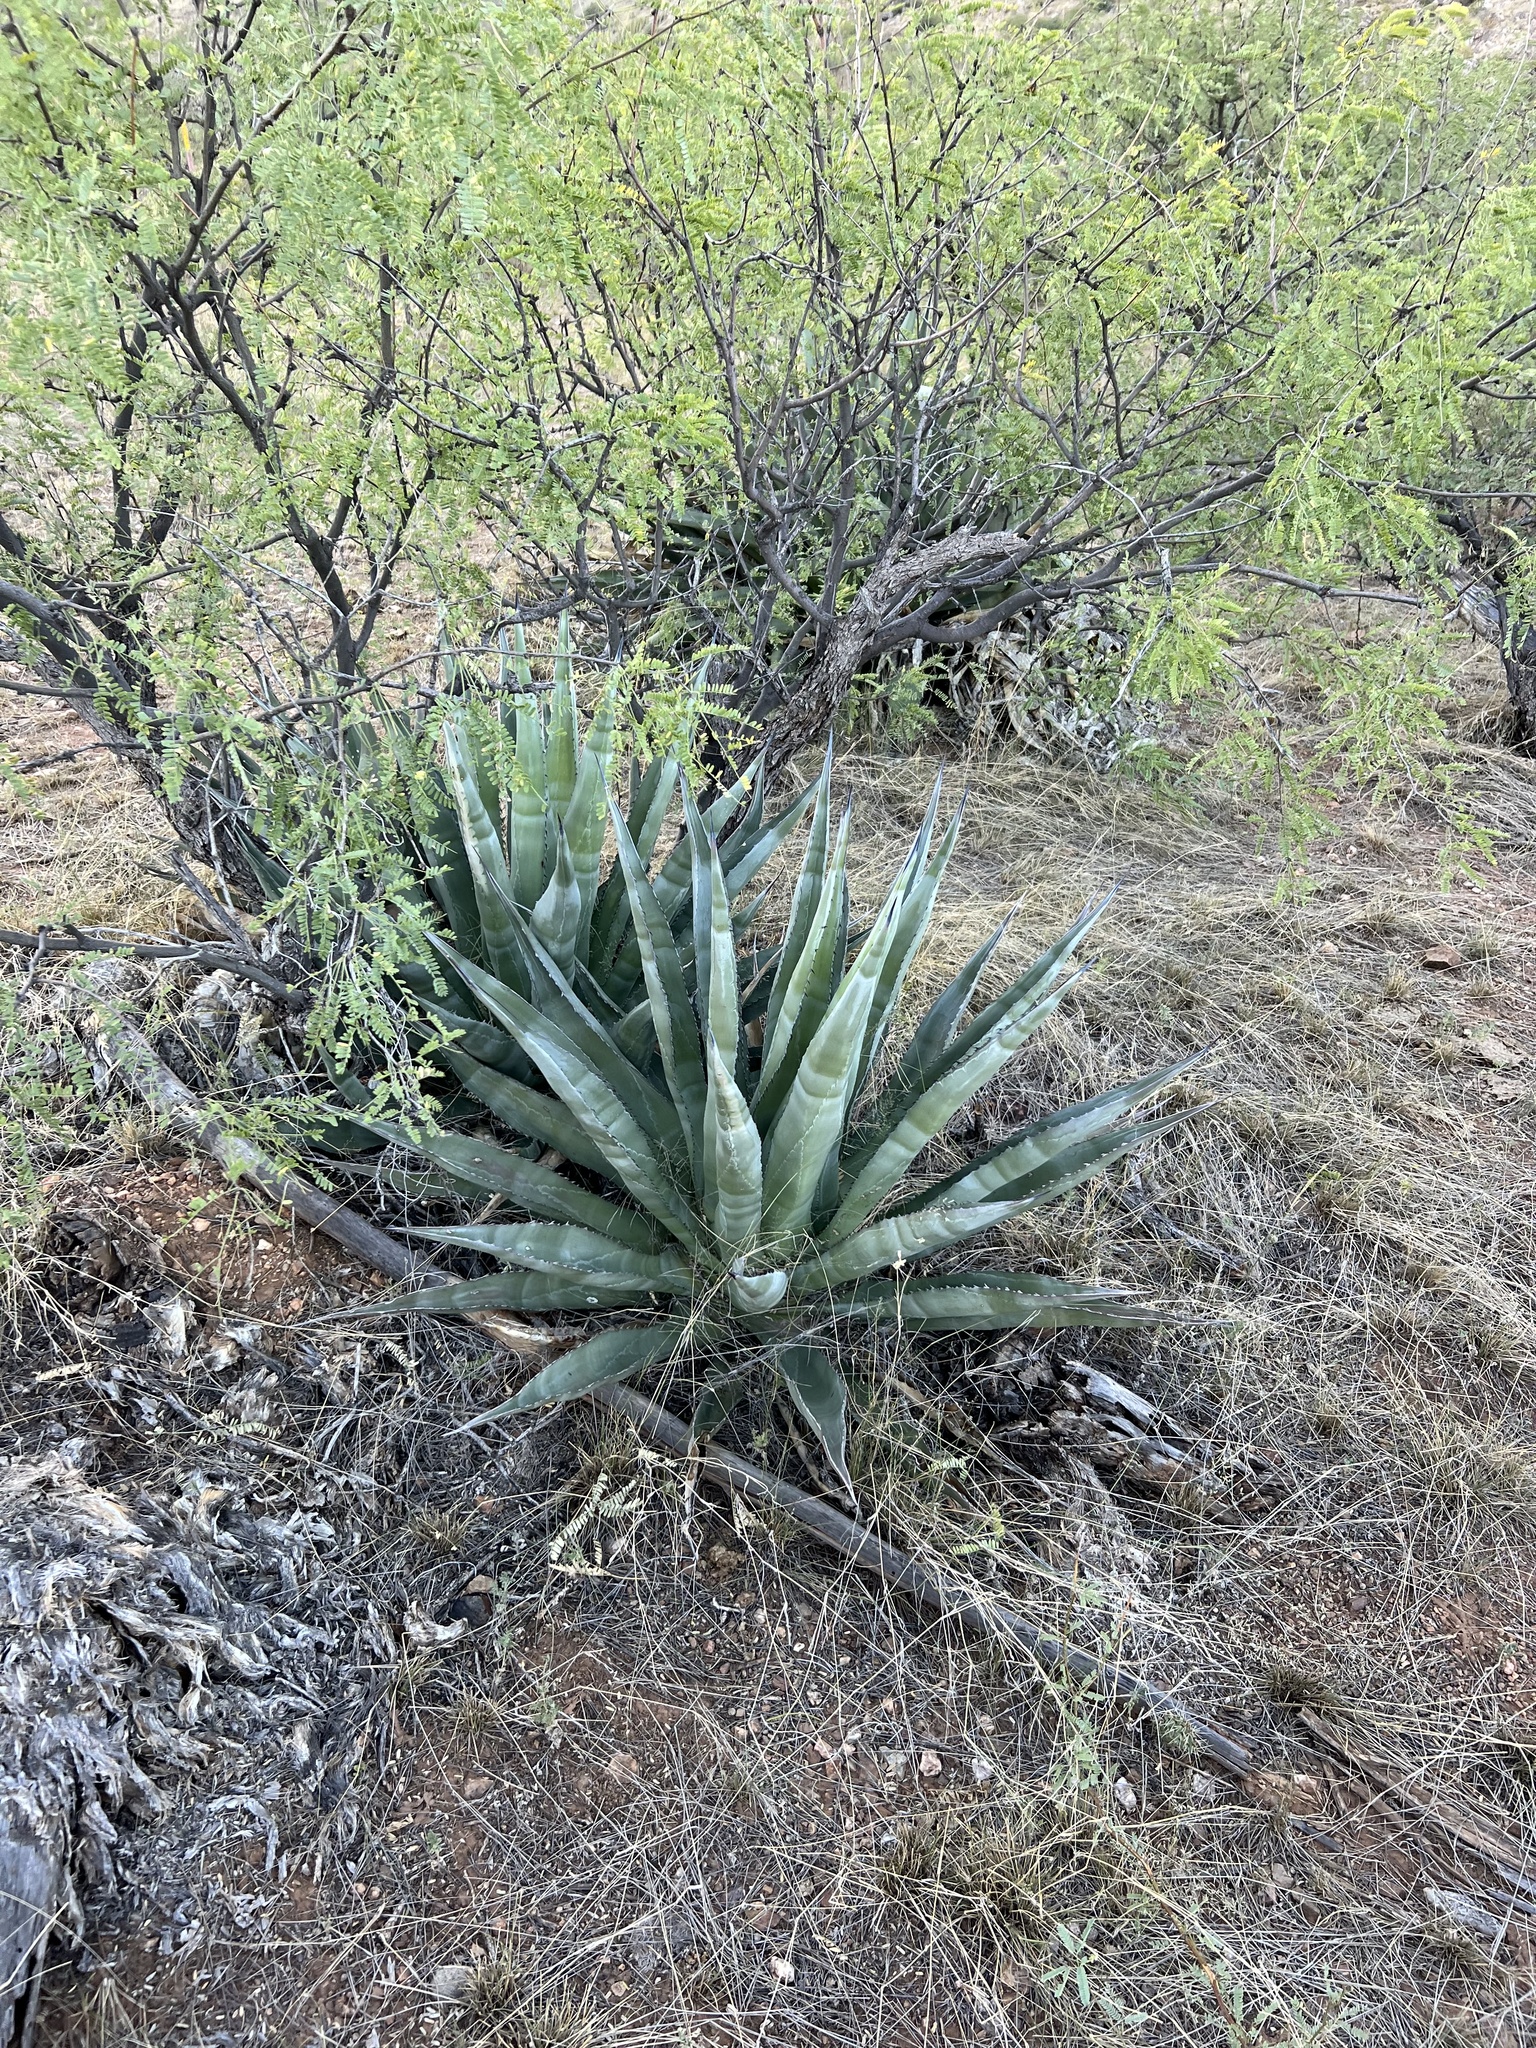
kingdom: Plantae
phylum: Tracheophyta
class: Liliopsida
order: Asparagales
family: Asparagaceae
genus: Agave
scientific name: Agave palmeri
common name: Palmer agave
